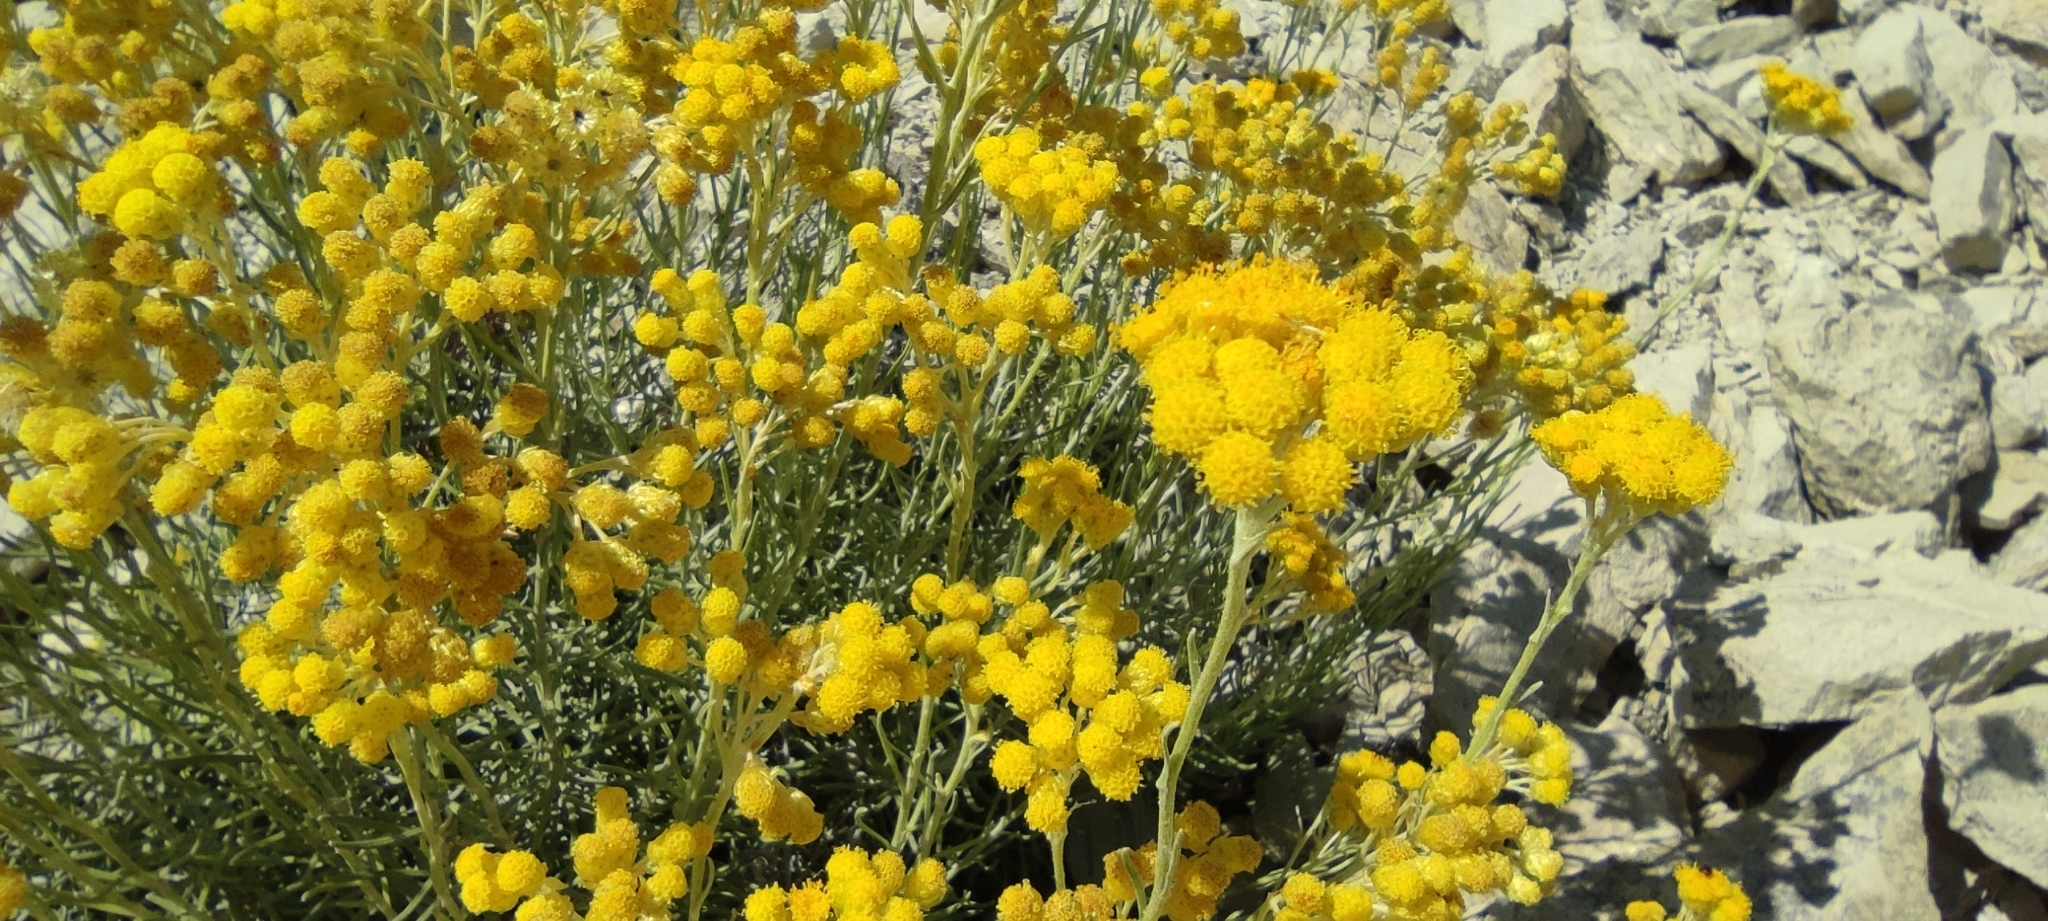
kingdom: Plantae
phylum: Tracheophyta
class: Magnoliopsida
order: Asterales
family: Asteraceae
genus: Helichrysum
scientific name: Helichrysum stoechas
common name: Goldilocks
